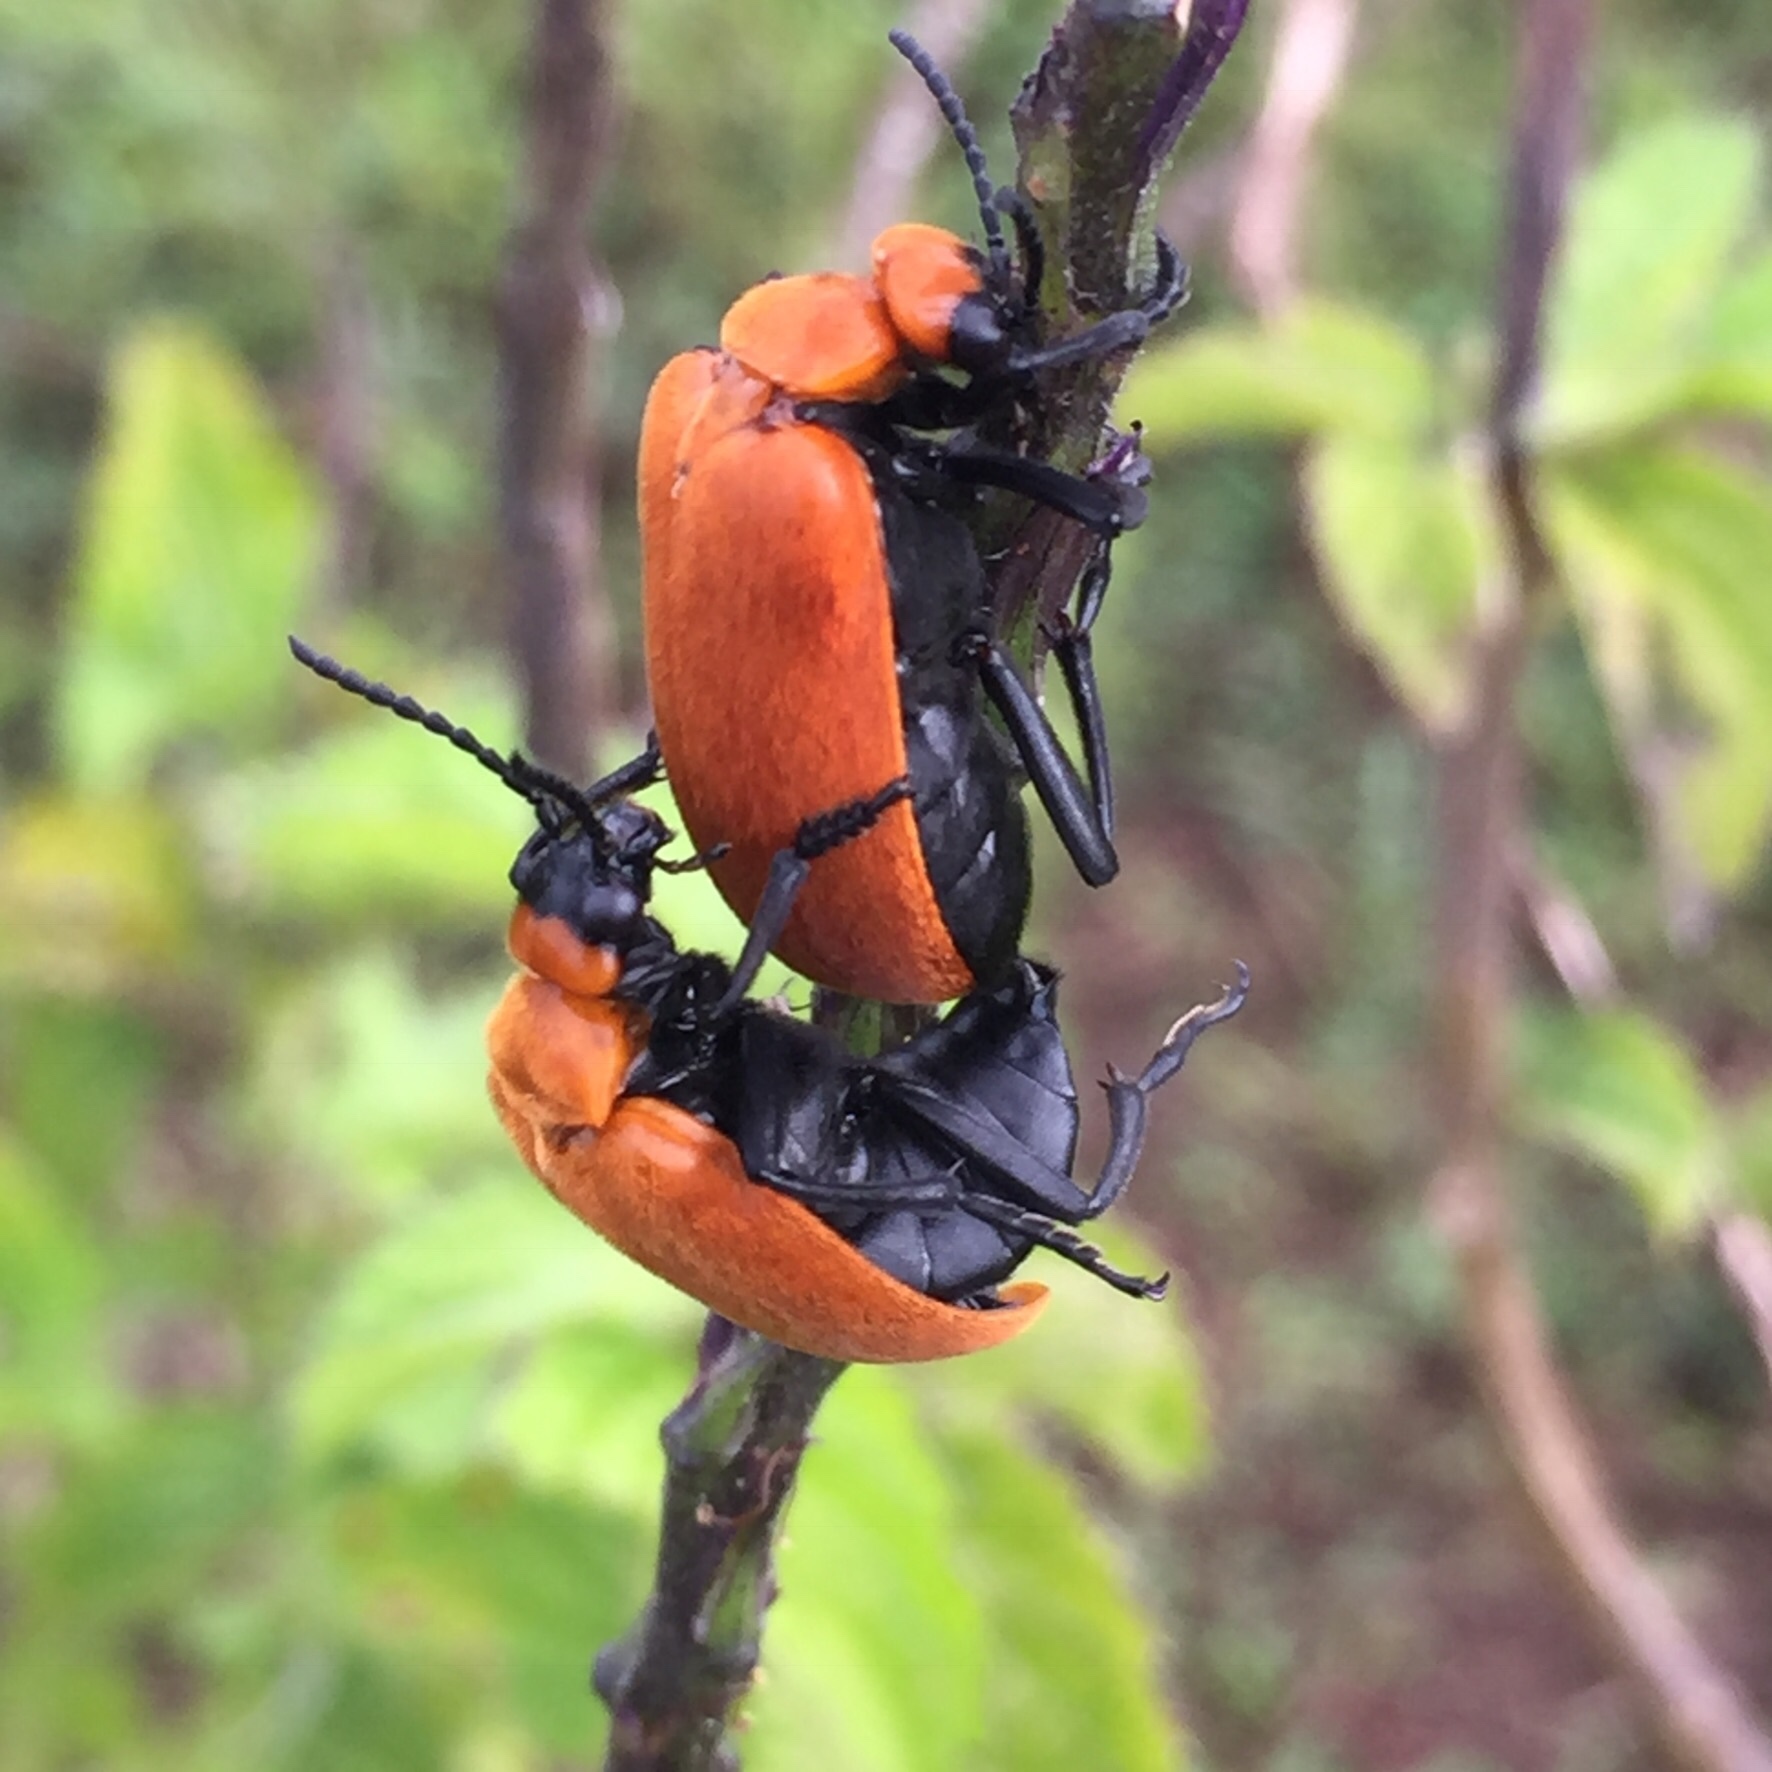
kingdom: Animalia
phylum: Arthropoda
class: Insecta
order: Coleoptera
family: Meloidae
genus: Tetraonyx
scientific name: Tetraonyx frontalis
